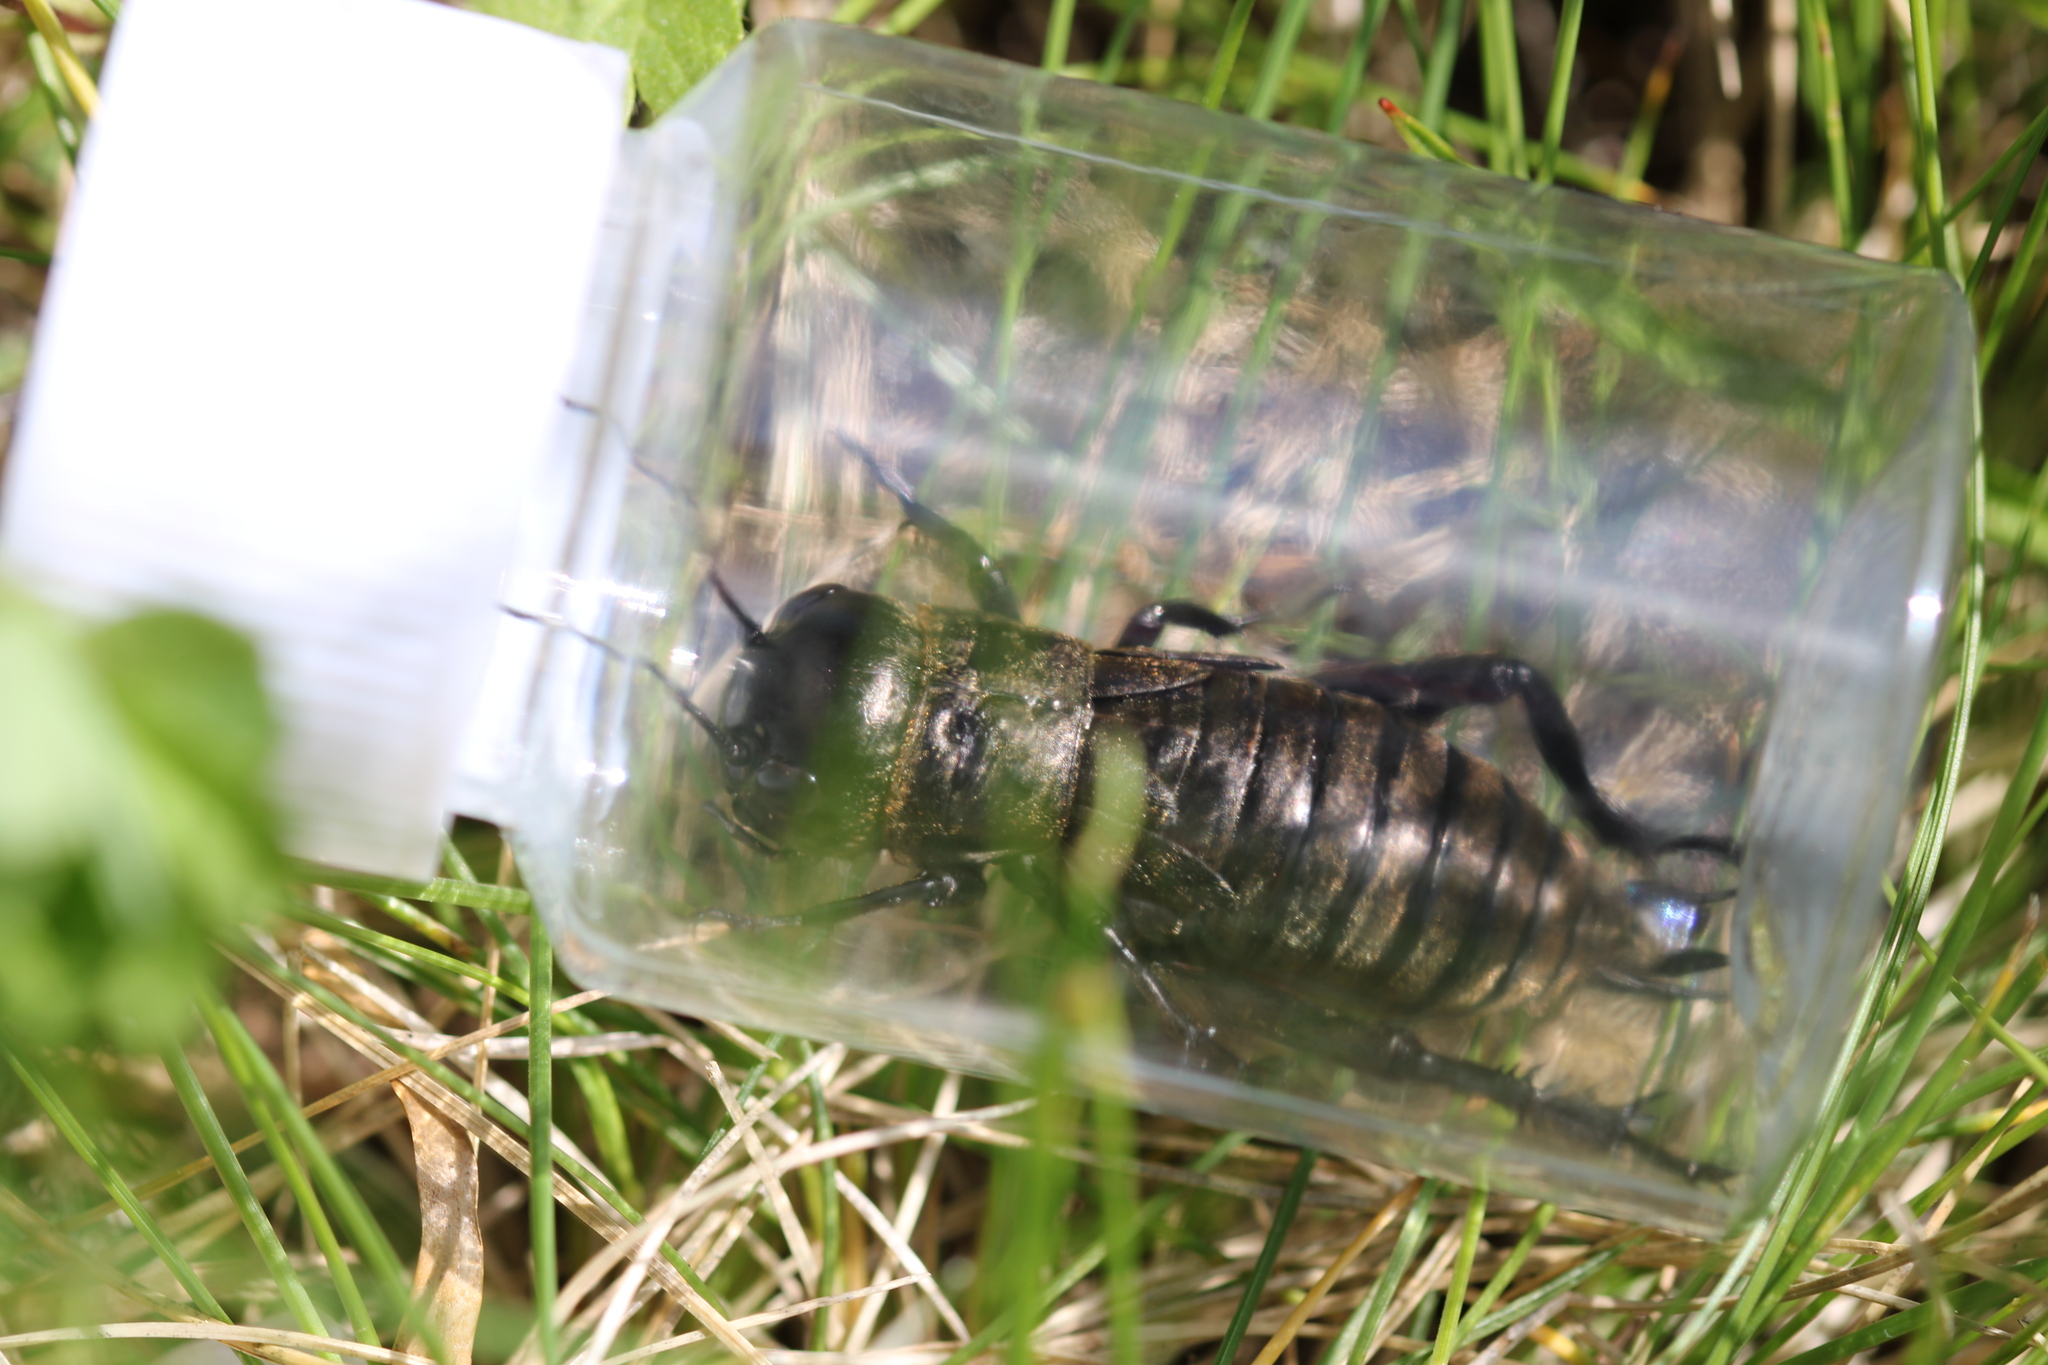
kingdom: Animalia
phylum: Arthropoda
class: Insecta
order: Orthoptera
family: Gryllidae
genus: Gryllus
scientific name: Gryllus campestris
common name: Field cricket
